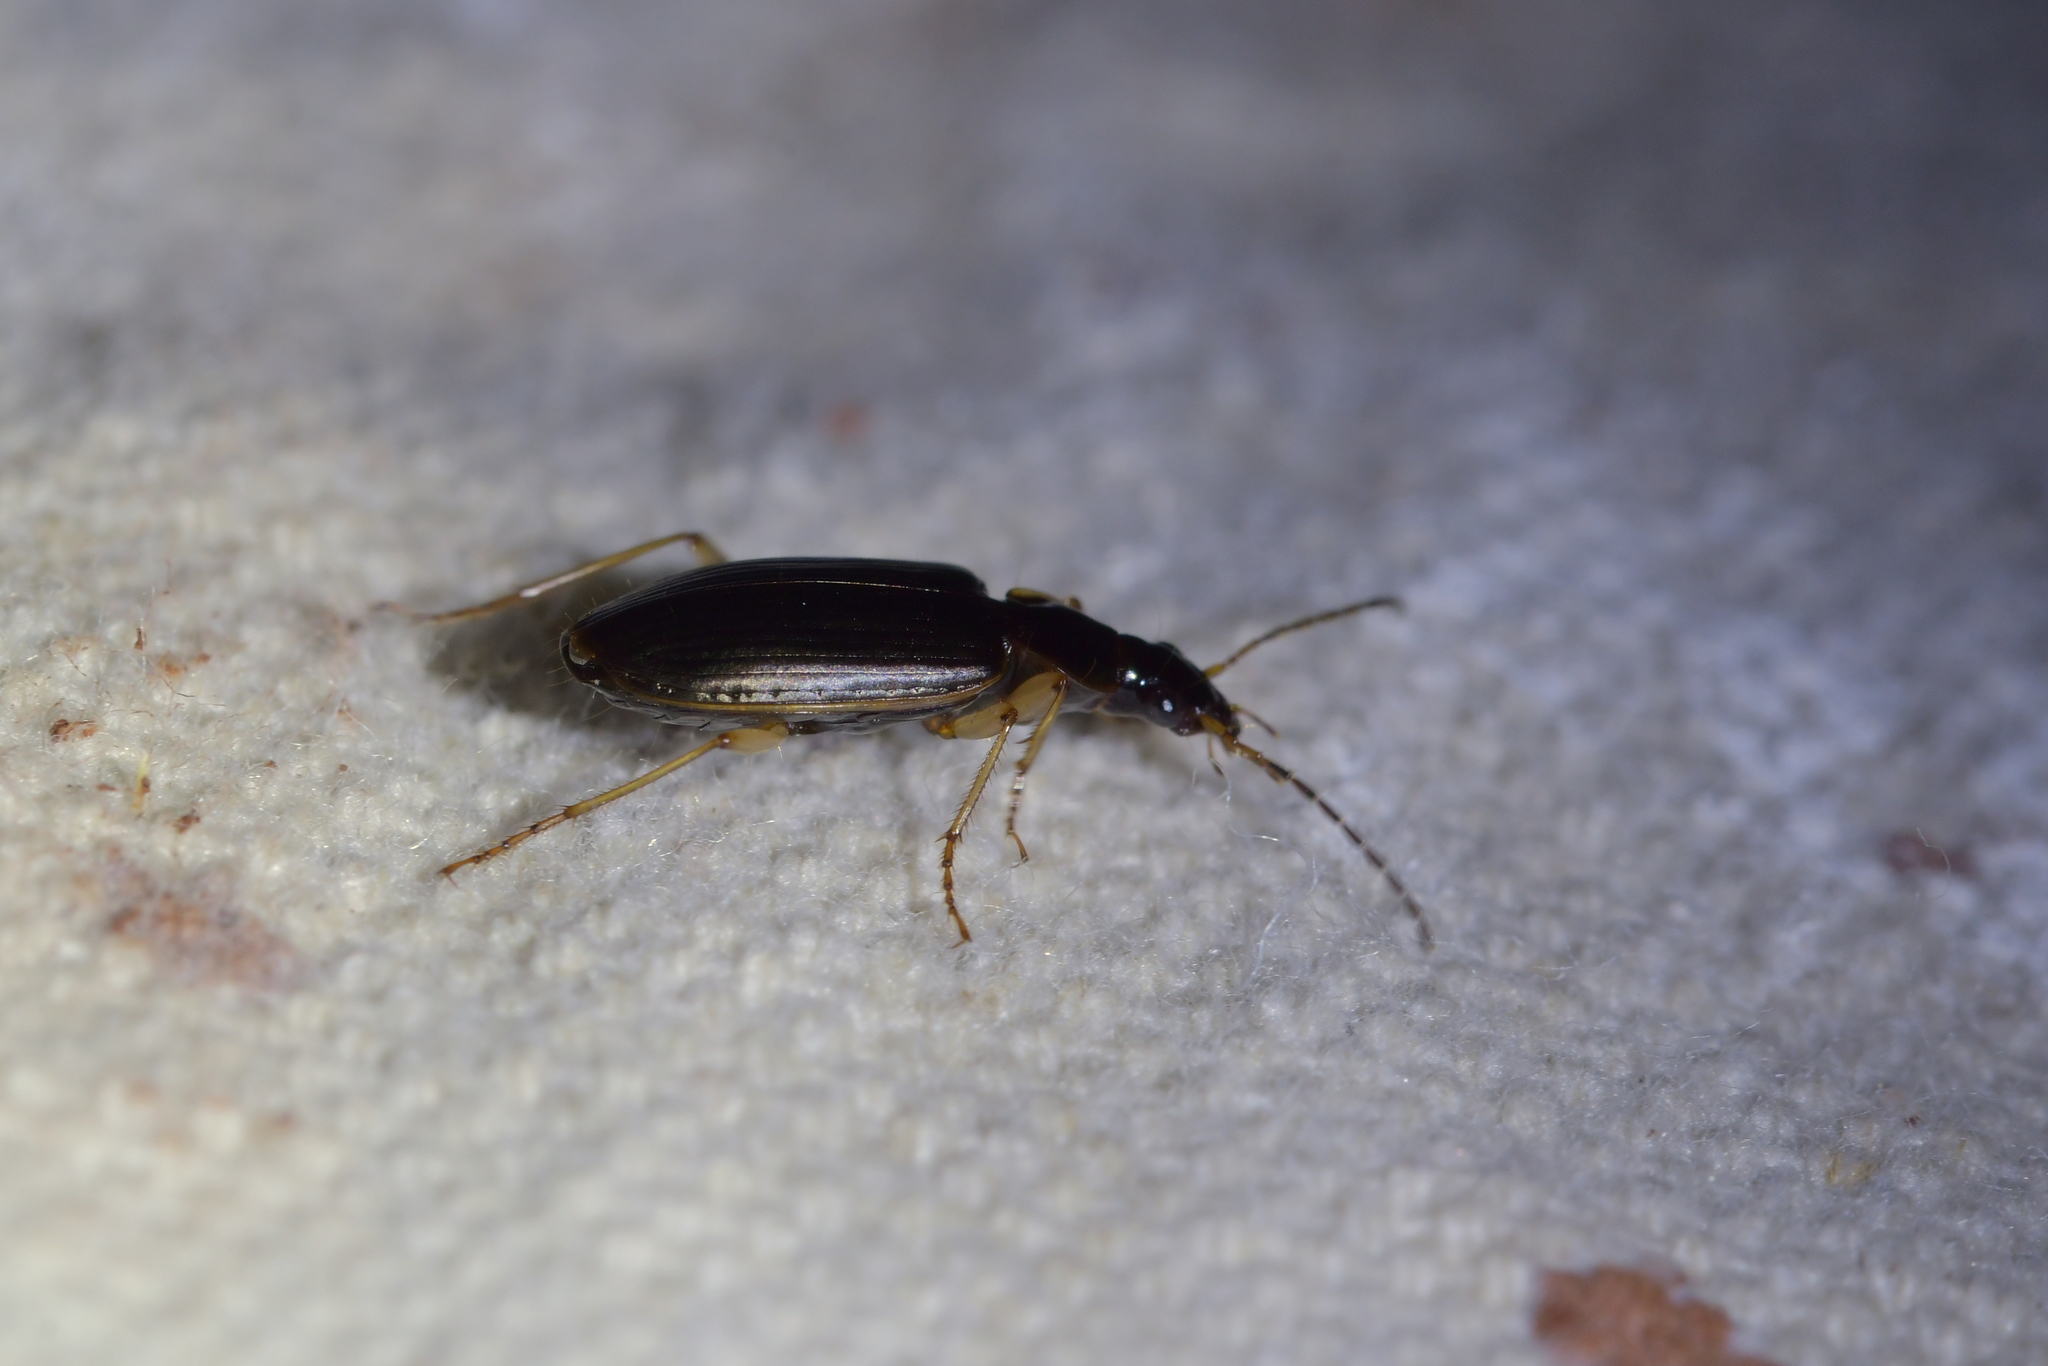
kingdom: Animalia
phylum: Arthropoda
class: Insecta
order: Coleoptera
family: Carabidae
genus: Notagonum
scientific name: Notagonum submetallicum
